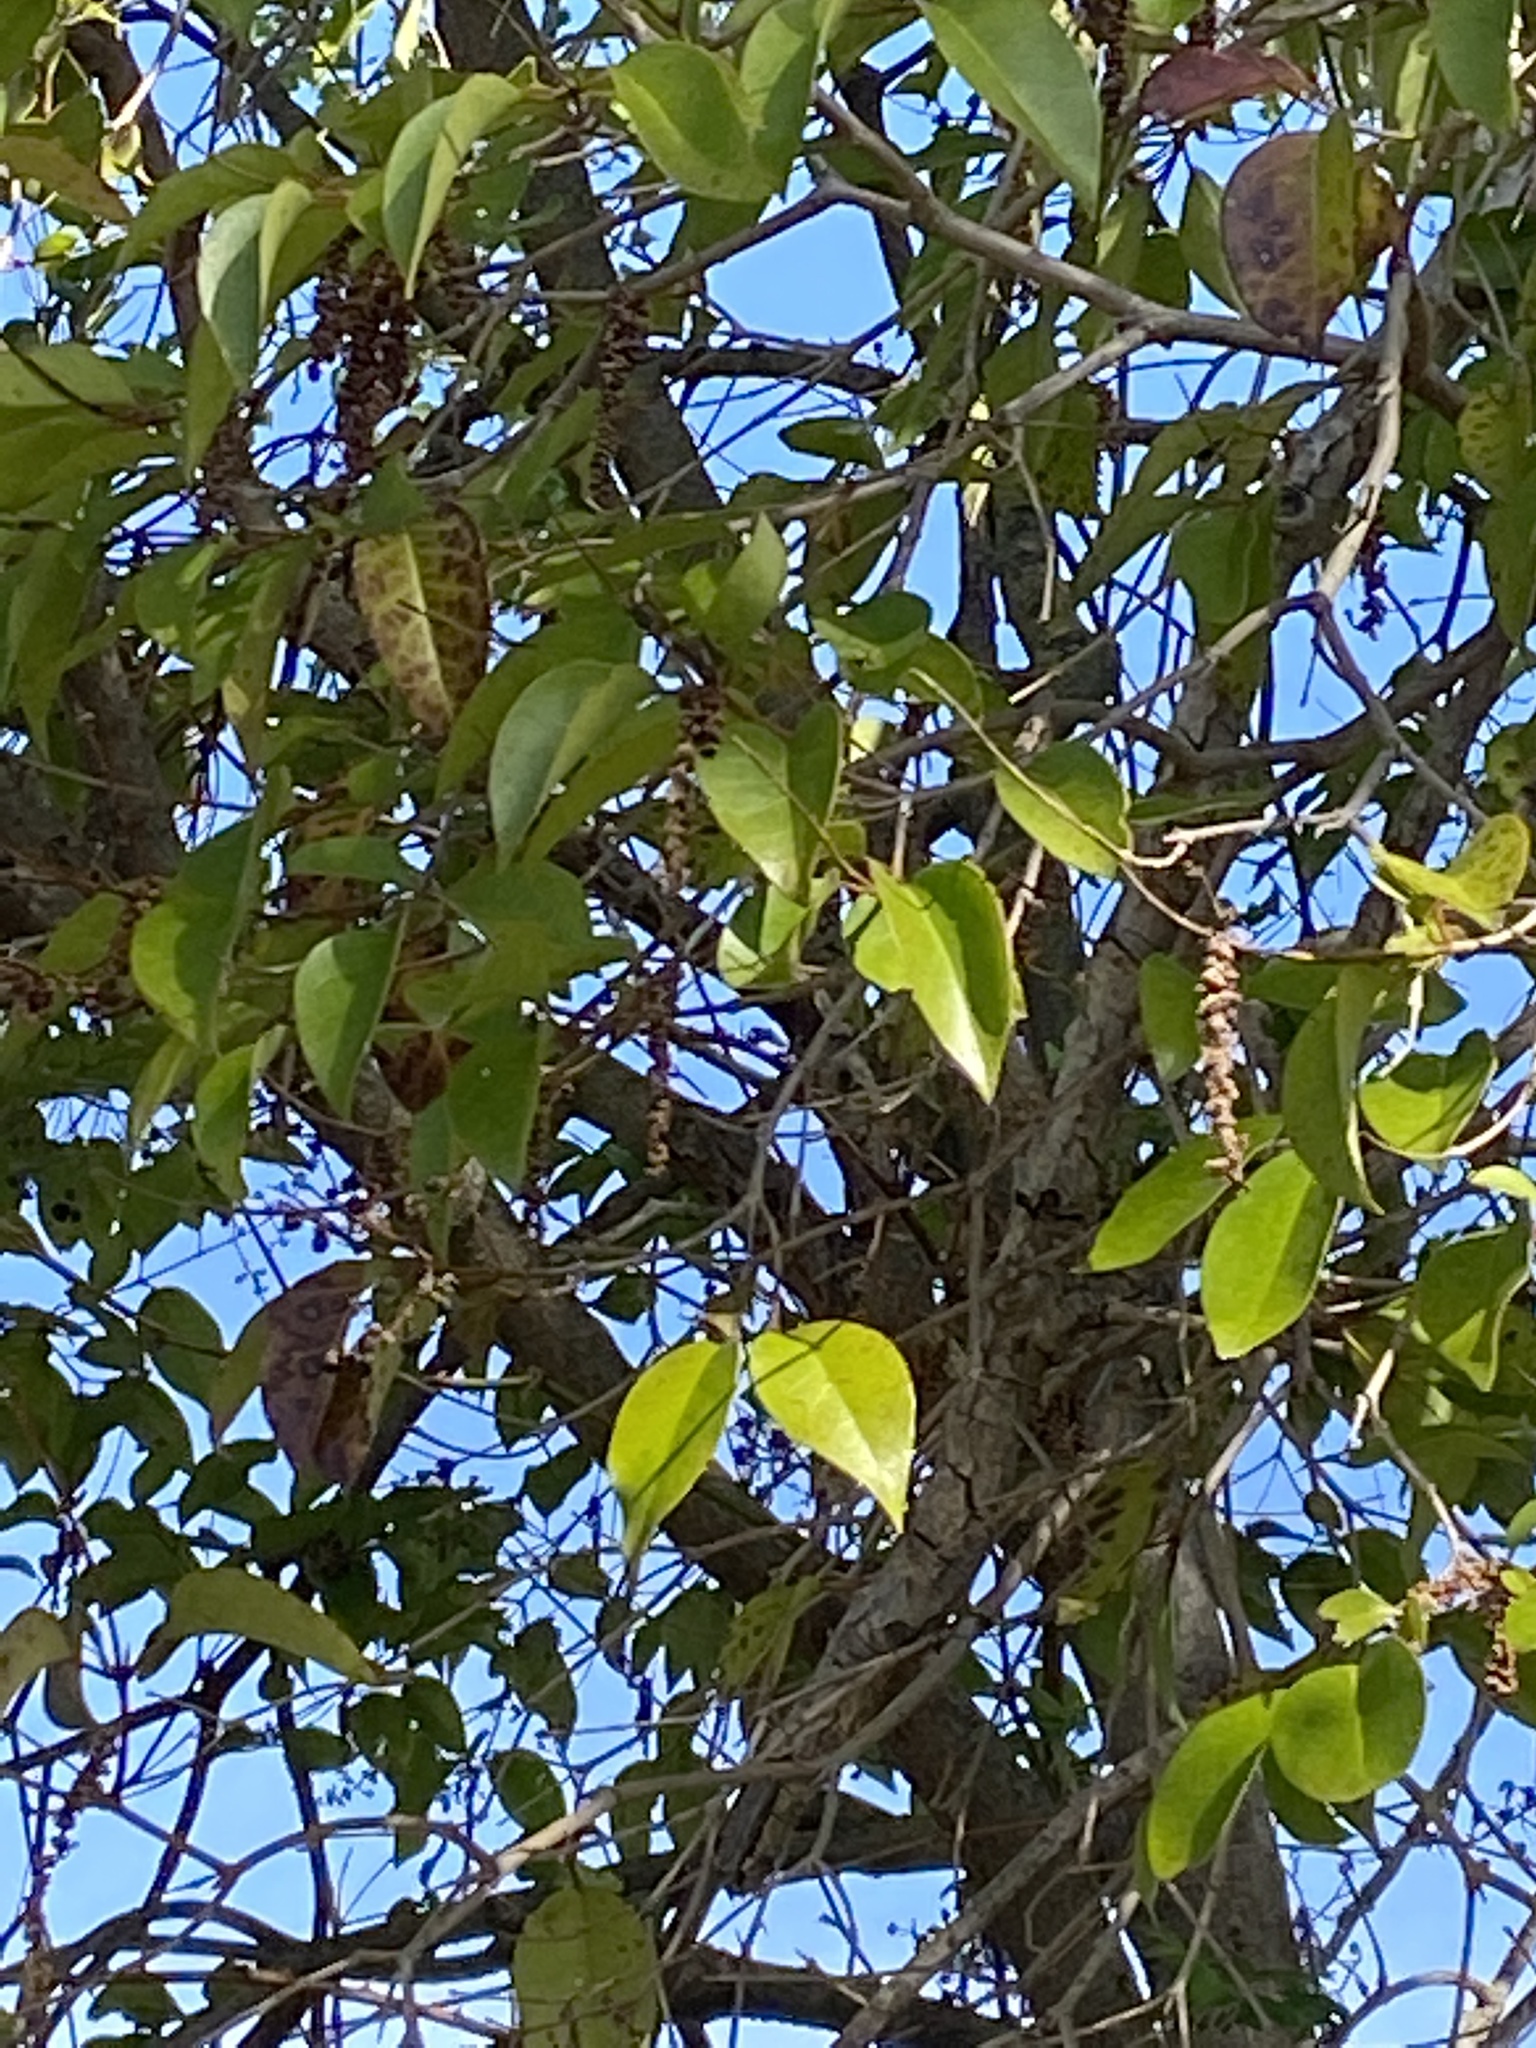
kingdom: Plantae
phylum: Tracheophyta
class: Magnoliopsida
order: Lamiales
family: Oleaceae
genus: Ligustrum
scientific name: Ligustrum lucidum
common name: Glossy privet
